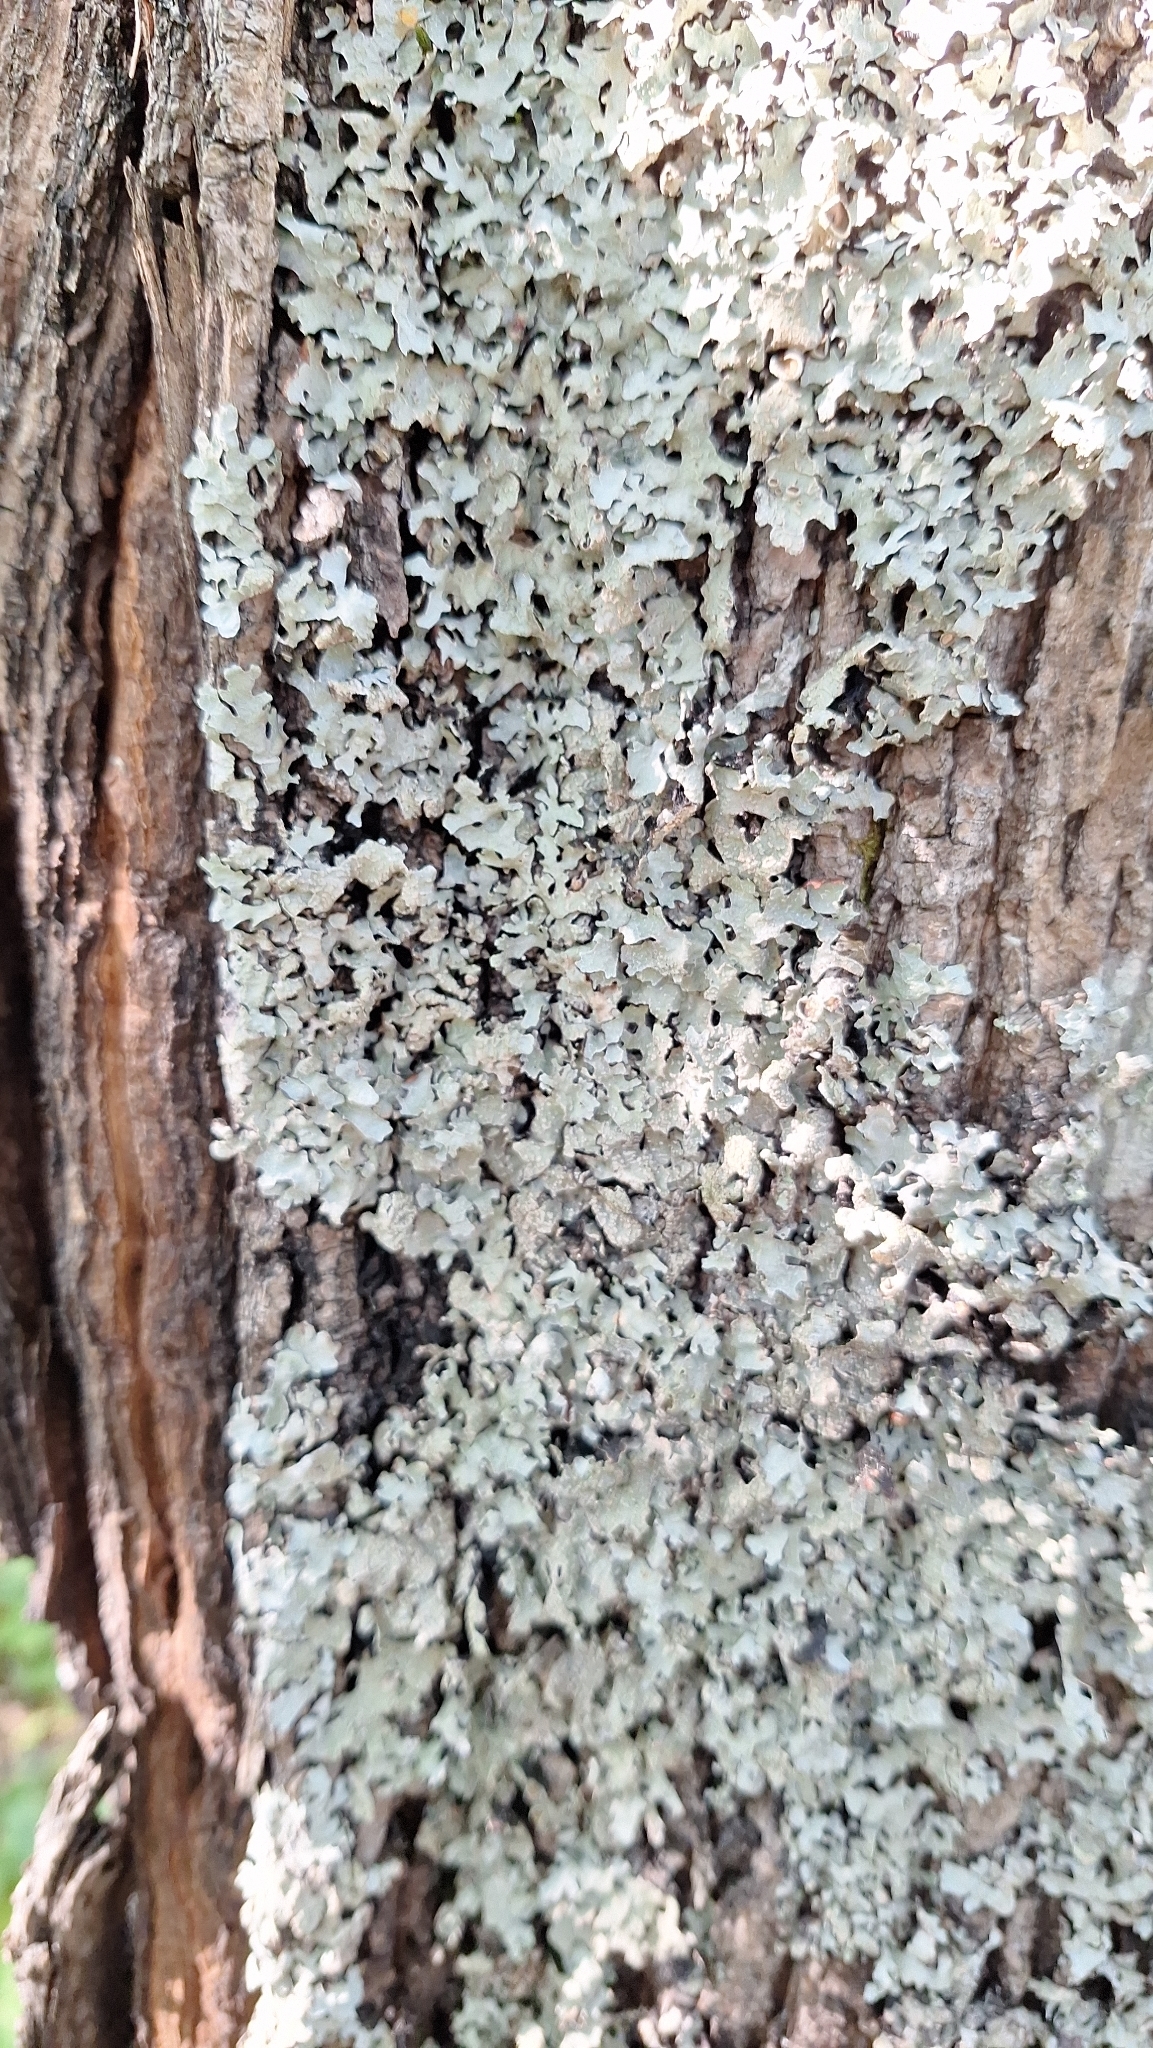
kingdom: Fungi
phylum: Ascomycota
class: Lecanoromycetes
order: Lecanorales
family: Parmeliaceae
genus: Parmelia
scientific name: Parmelia sulcata
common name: Netted shield lichen
